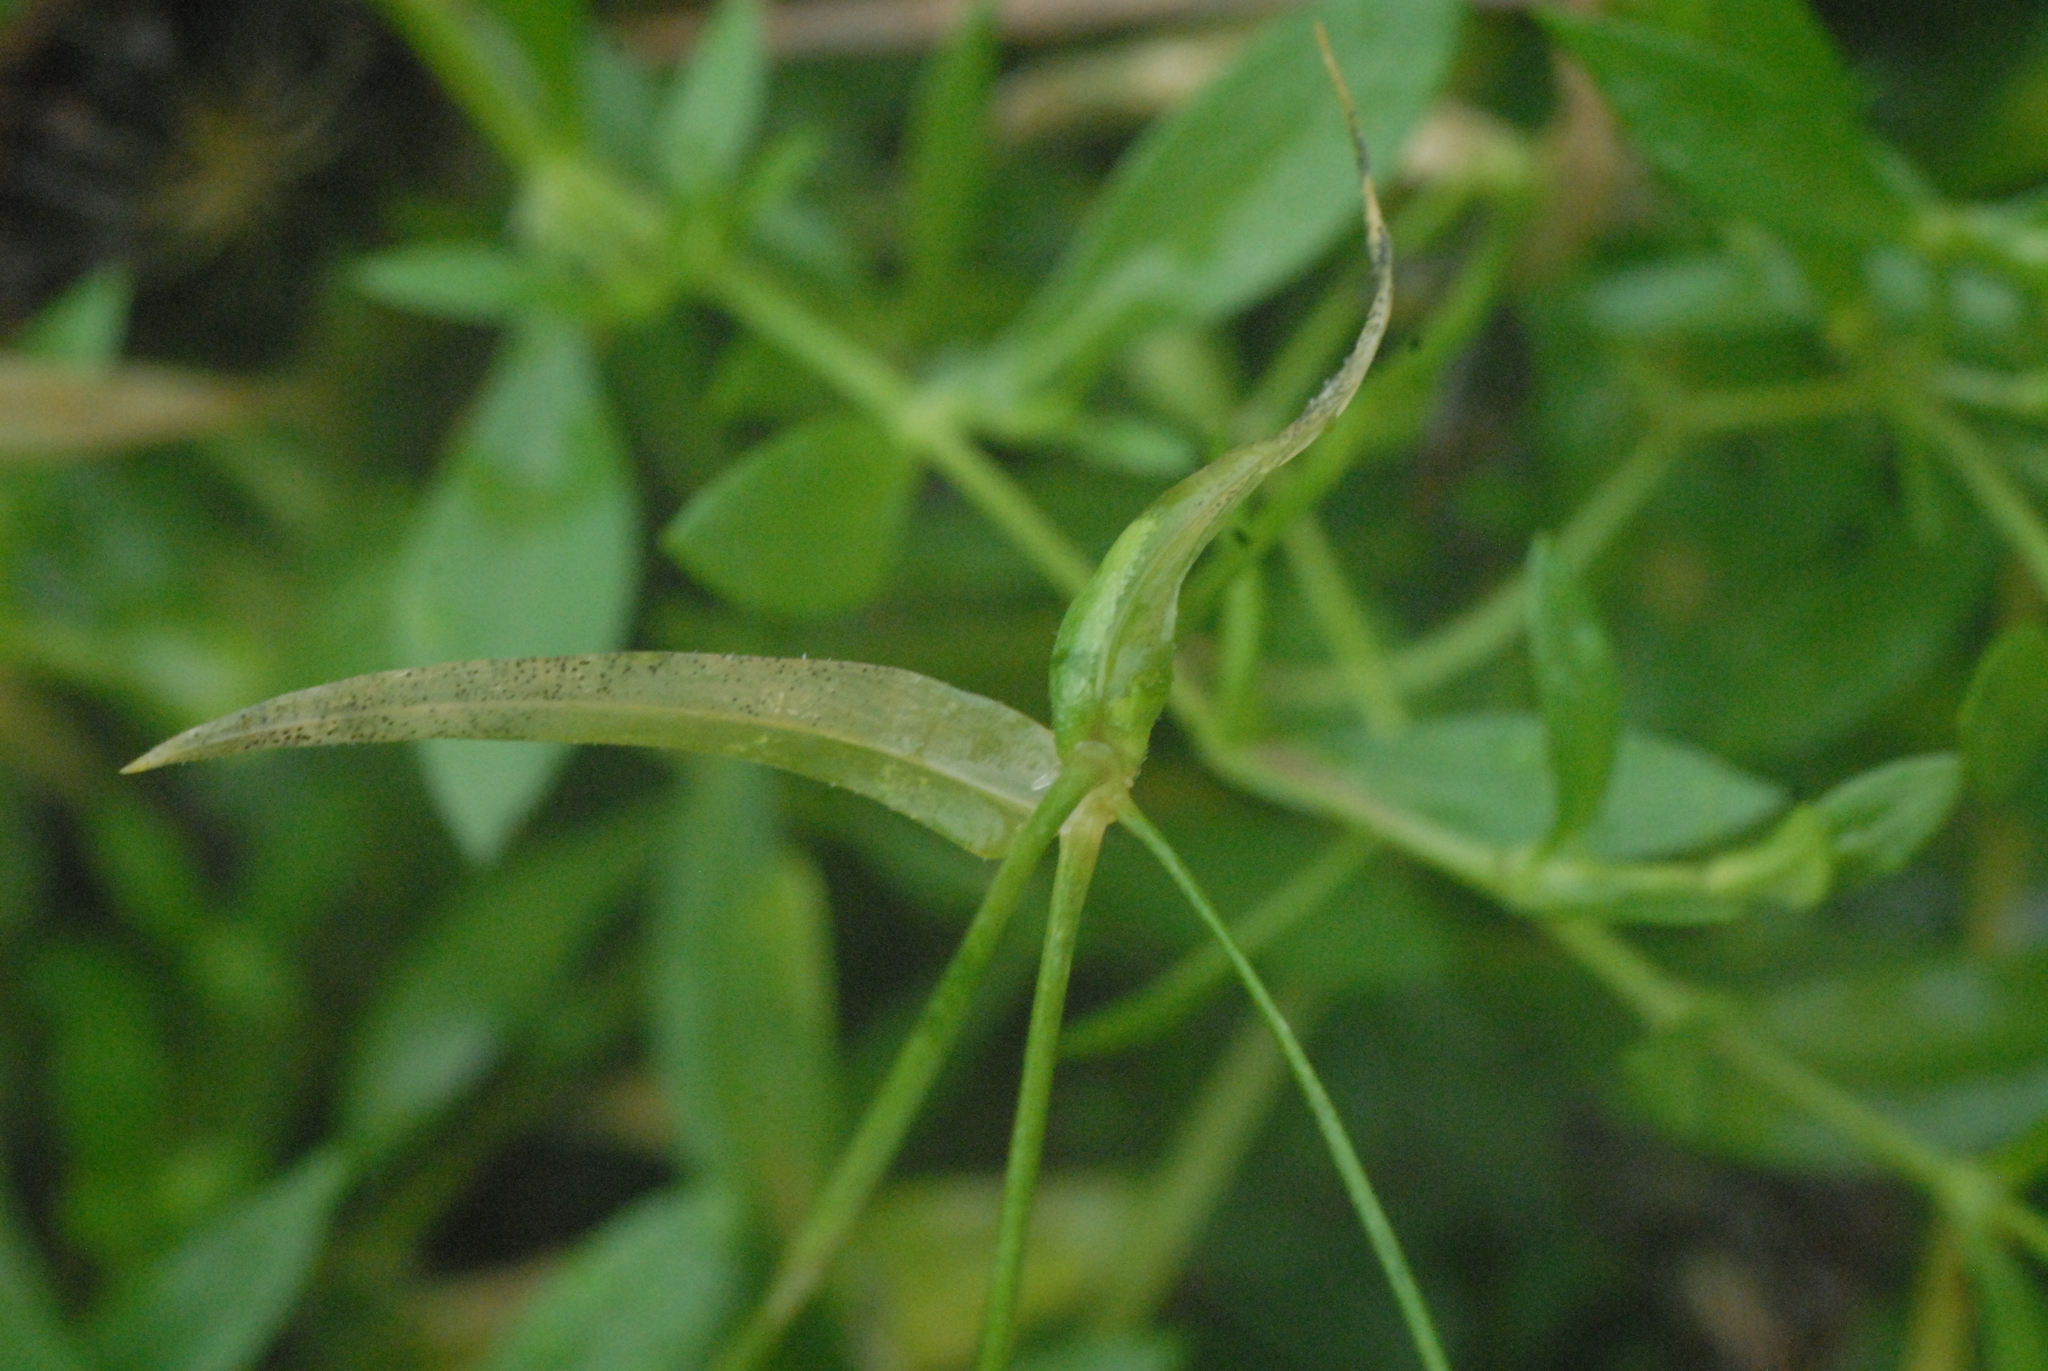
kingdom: Plantae
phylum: Tracheophyta
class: Magnoliopsida
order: Caryophyllales
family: Caryophyllaceae
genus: Stellaria
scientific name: Stellaria graminea
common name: Grass-like starwort
